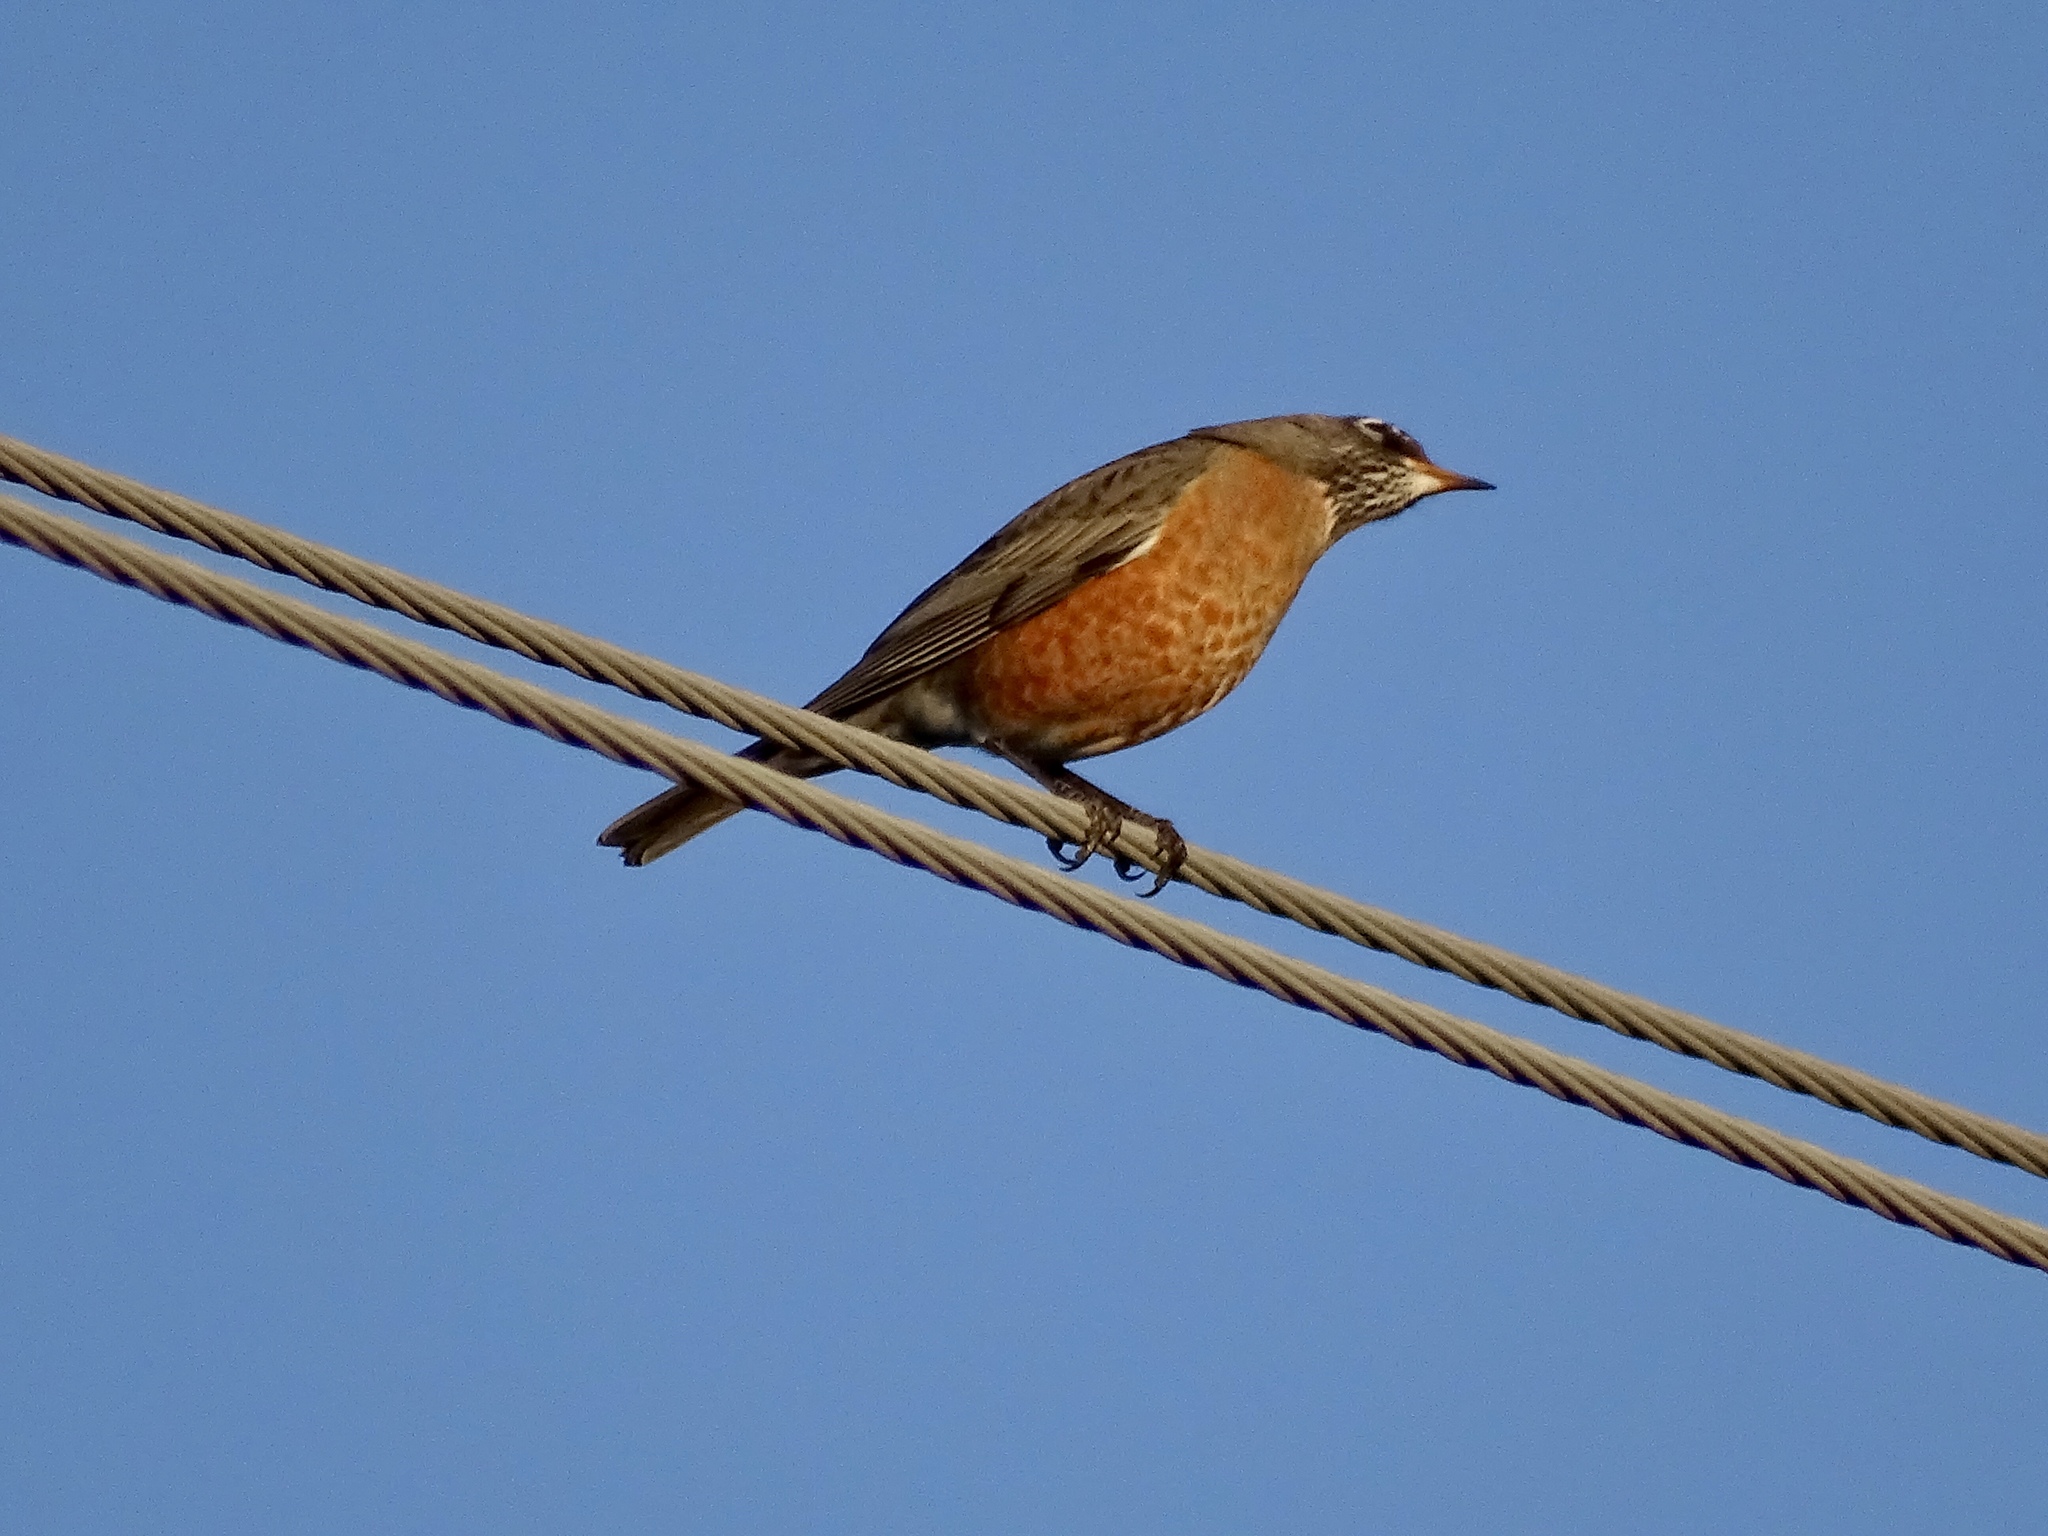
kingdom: Animalia
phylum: Chordata
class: Aves
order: Passeriformes
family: Turdidae
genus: Turdus
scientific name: Turdus migratorius
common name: American robin
